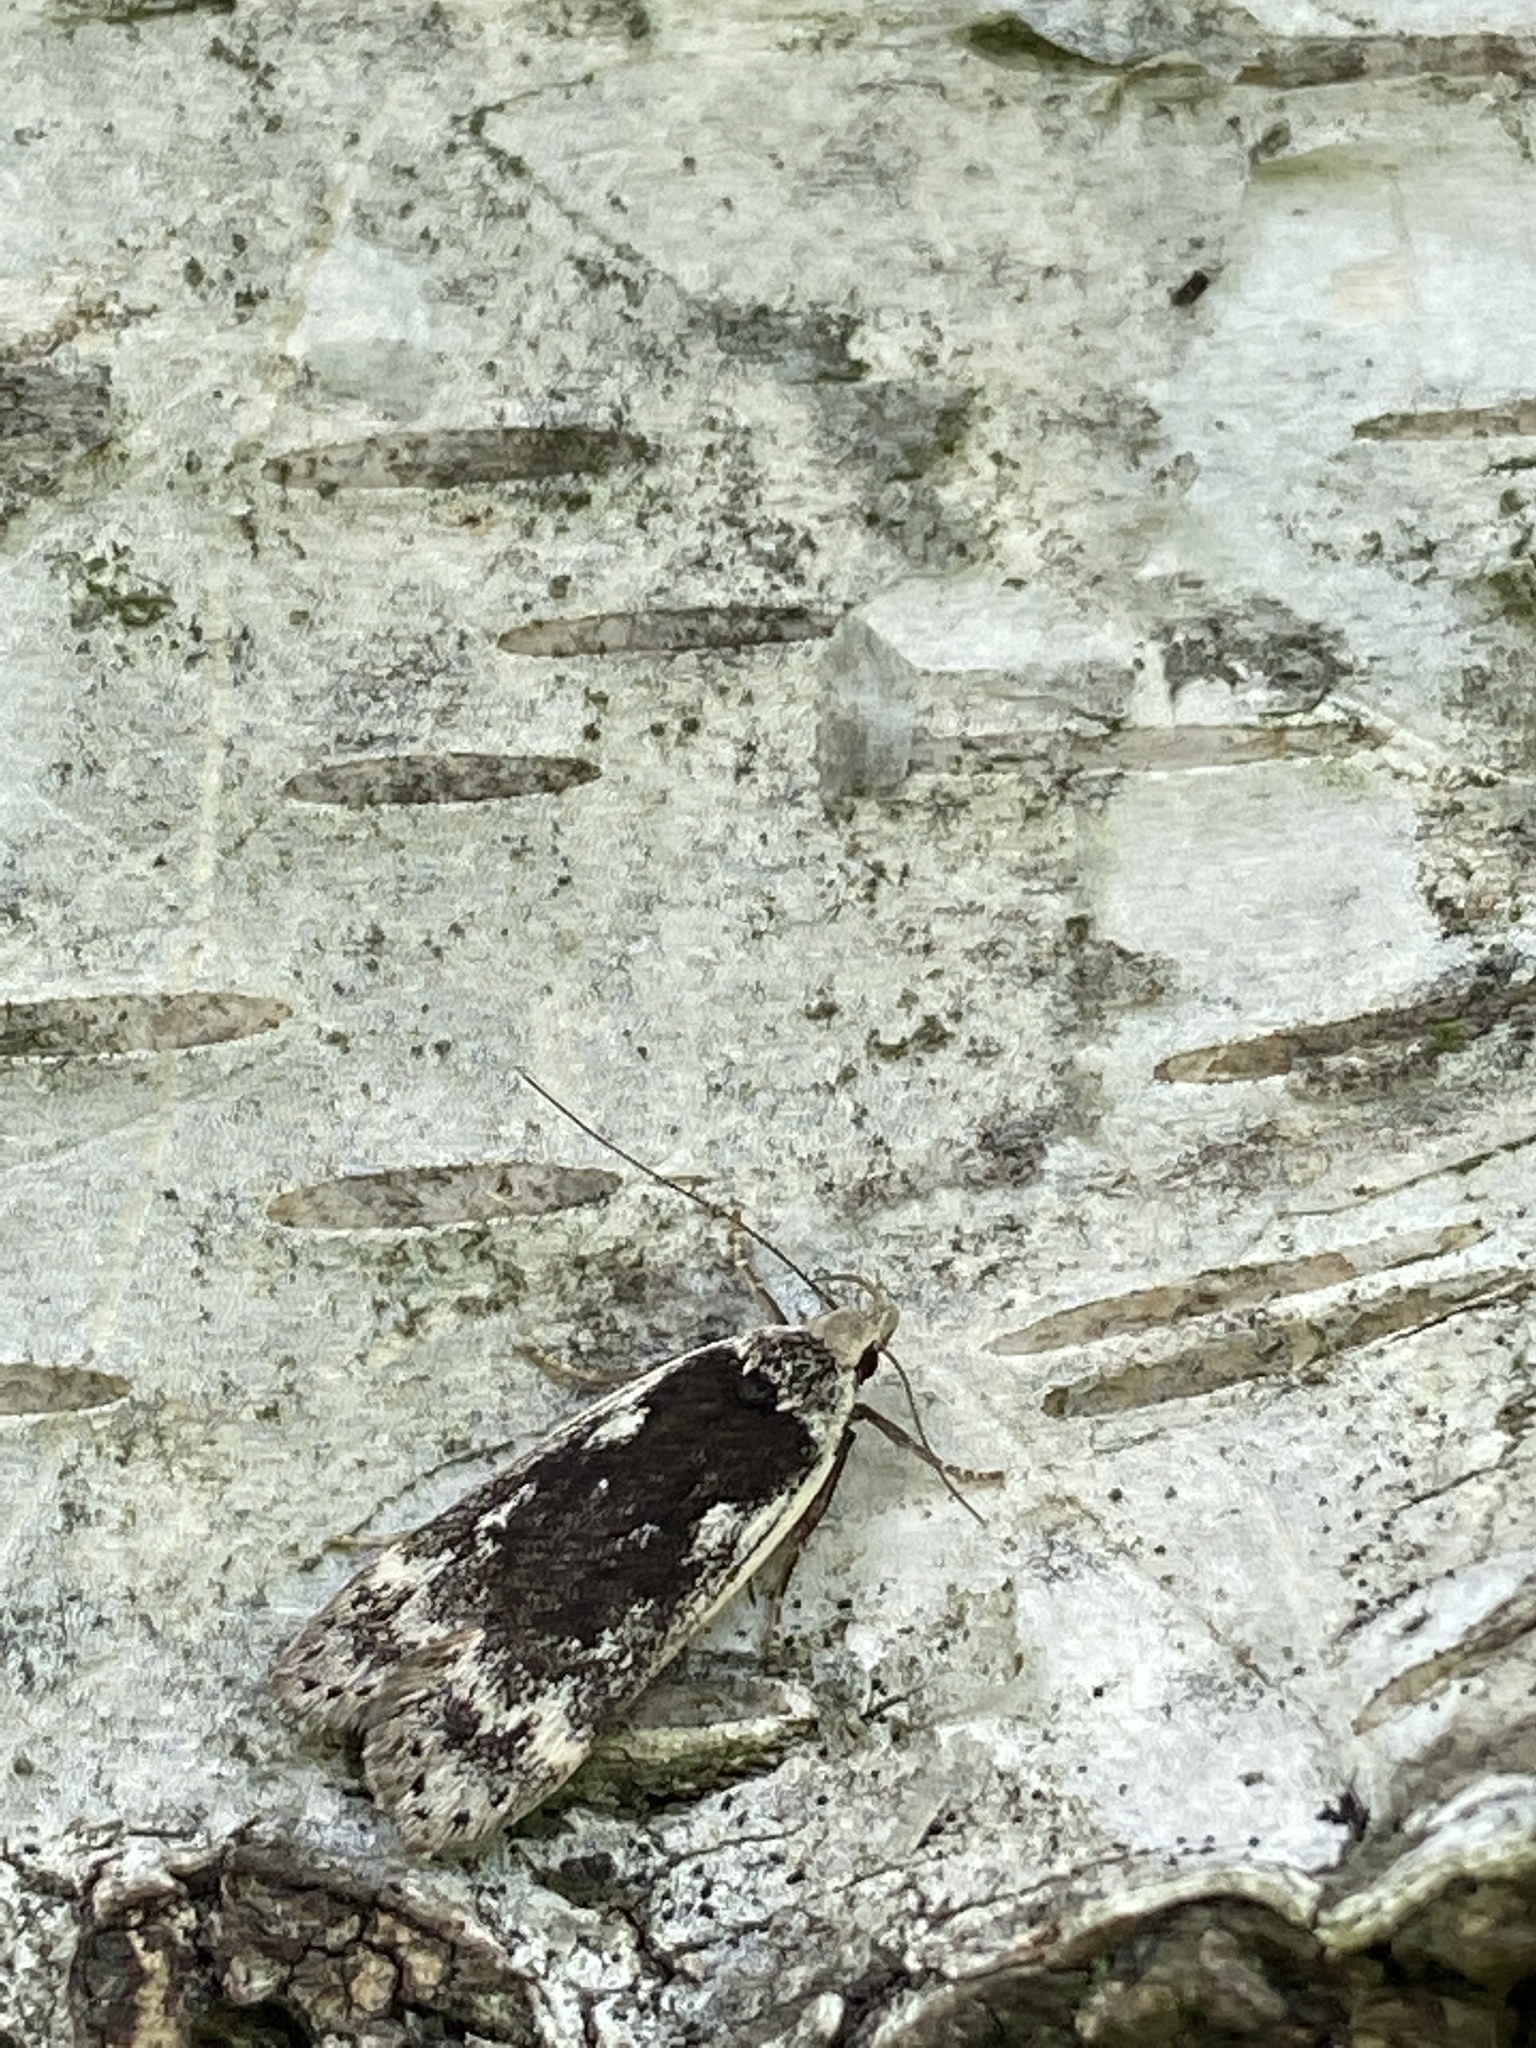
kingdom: Animalia
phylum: Arthropoda
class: Insecta
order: Lepidoptera
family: Gelechiidae
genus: Anacampsis
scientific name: Anacampsis blattariella
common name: Birch sober
